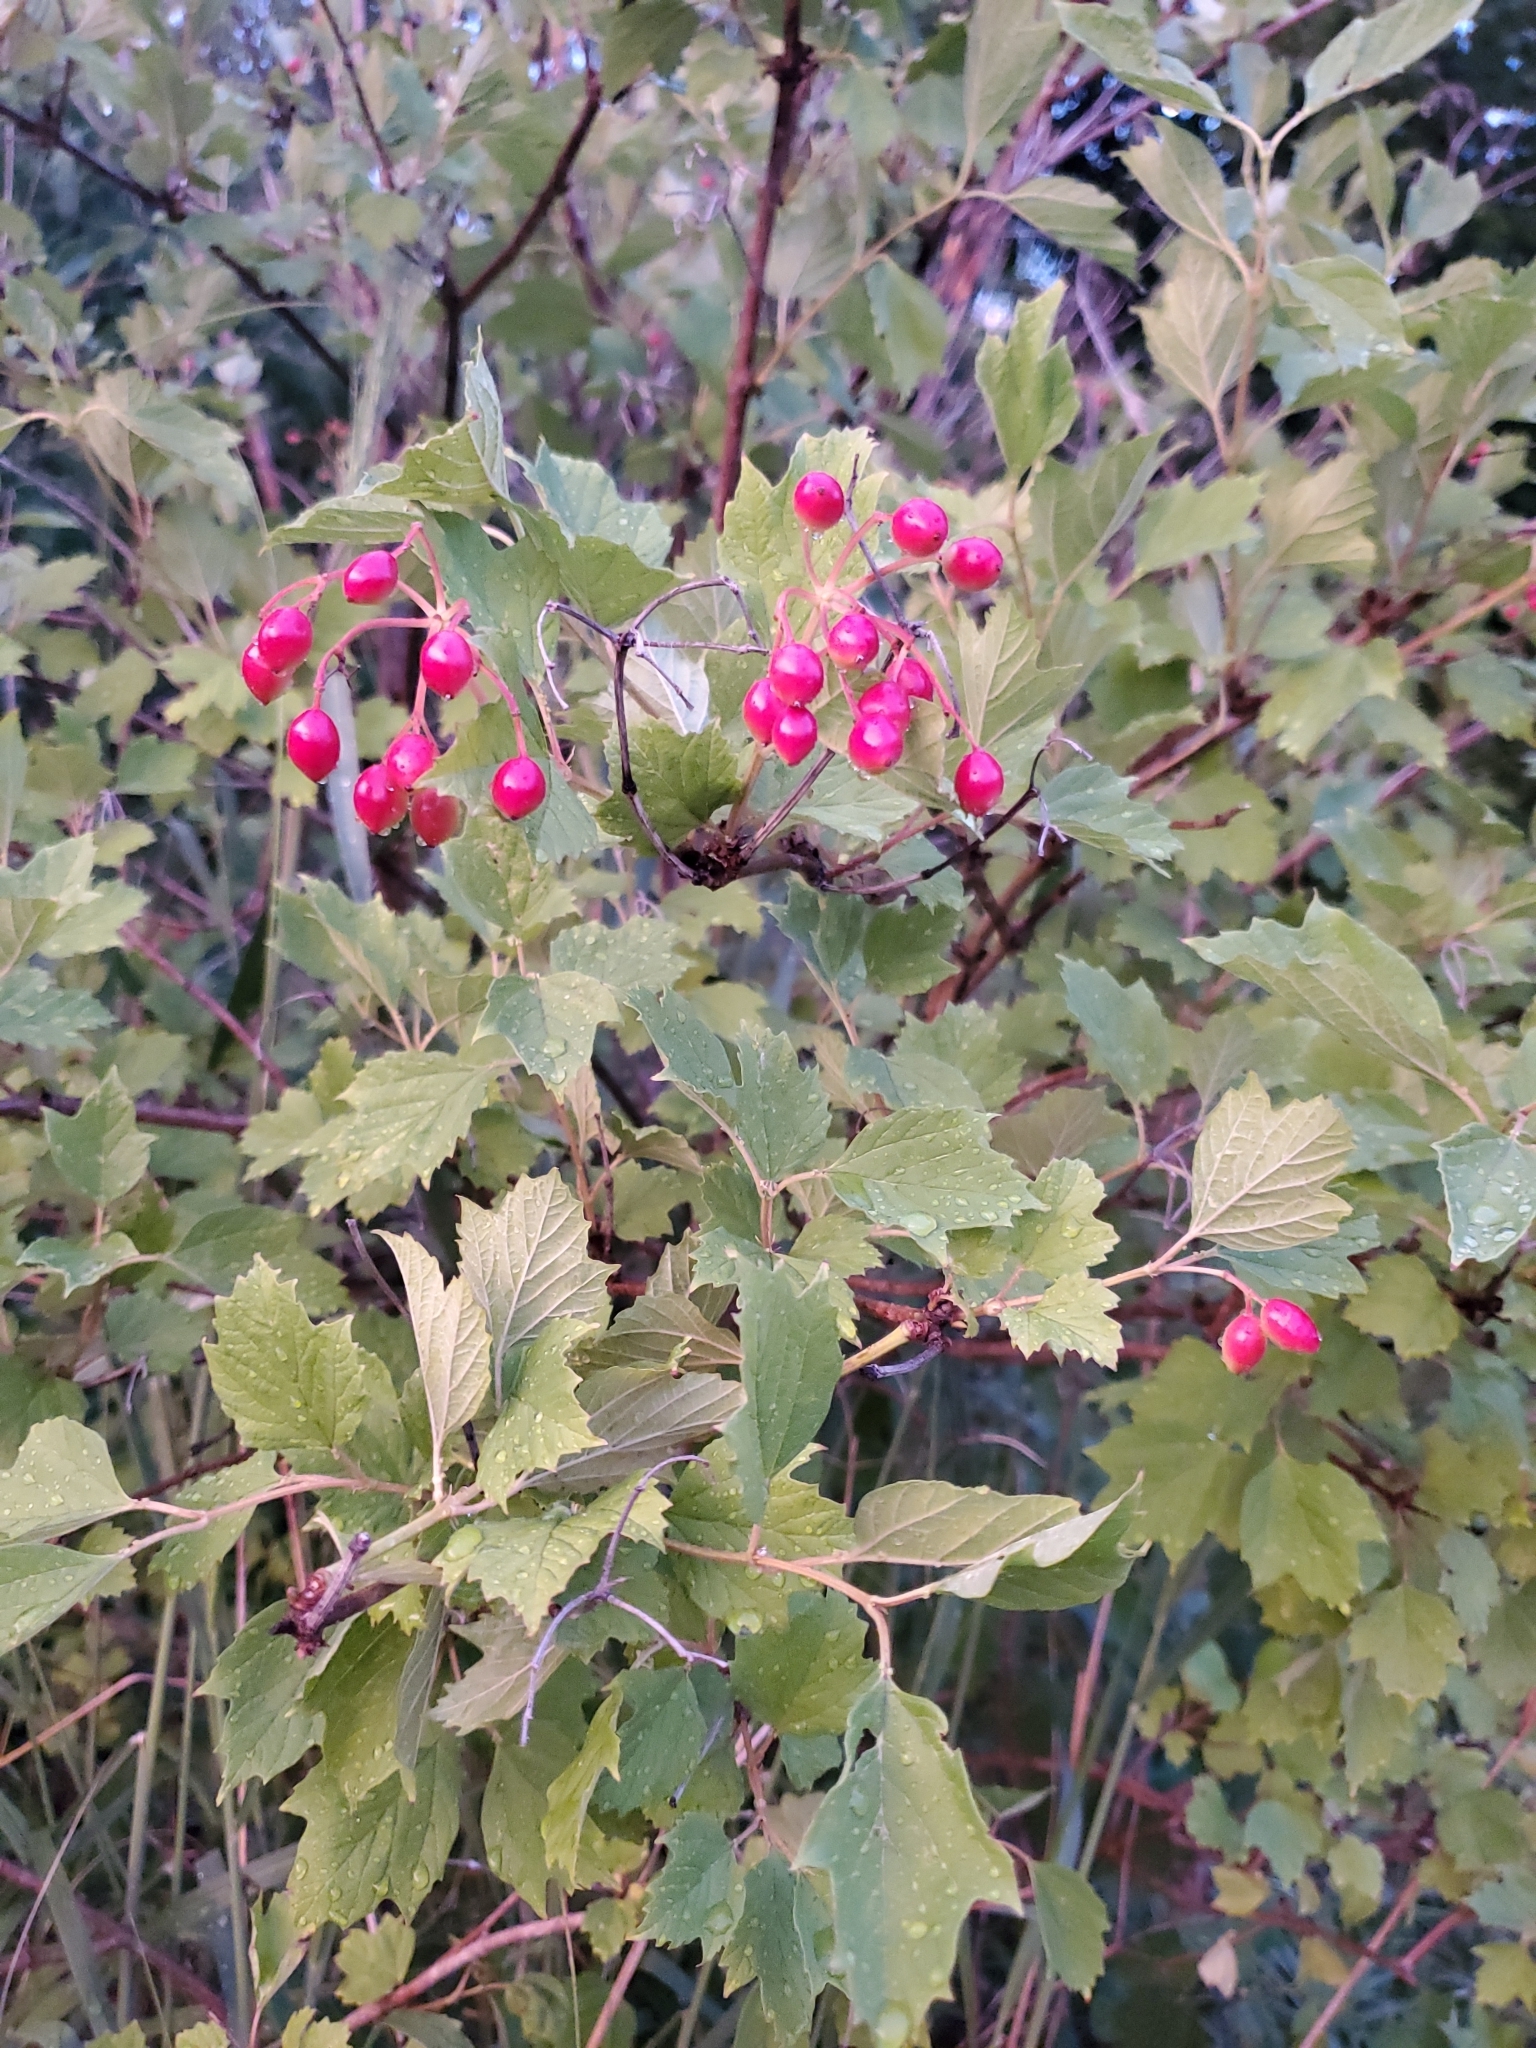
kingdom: Plantae
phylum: Tracheophyta
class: Magnoliopsida
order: Dipsacales
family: Viburnaceae
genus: Viburnum
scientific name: Viburnum opulus
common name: Guelder-rose
